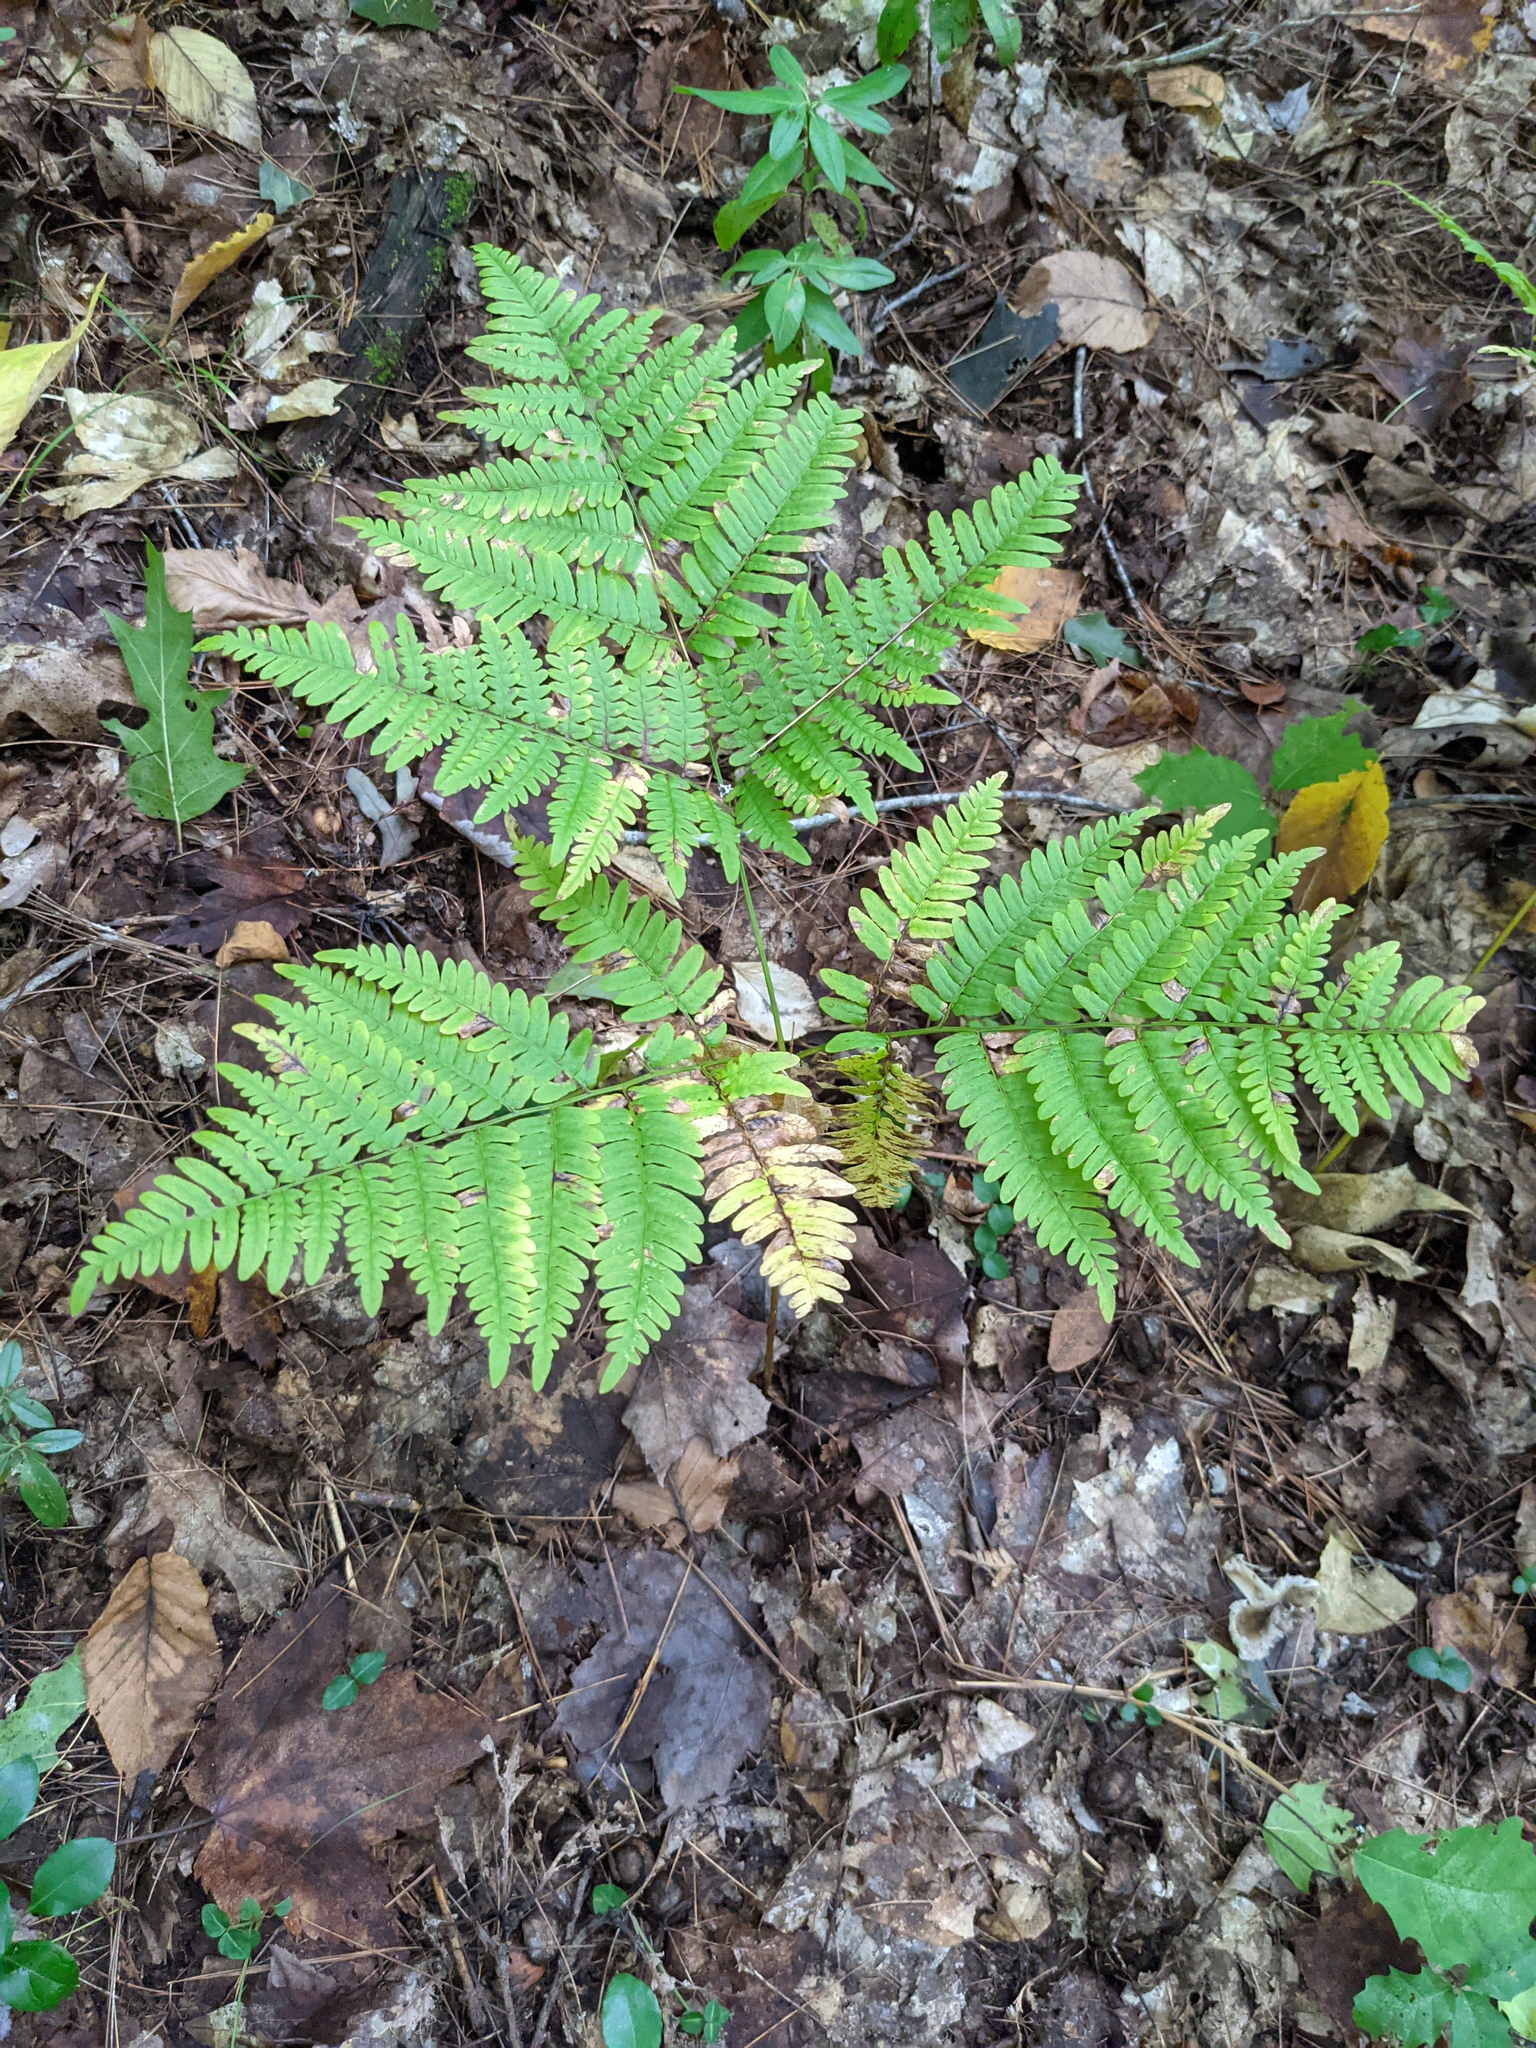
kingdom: Plantae
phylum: Tracheophyta
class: Polypodiopsida
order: Polypodiales
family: Dennstaedtiaceae
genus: Pteridium
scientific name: Pteridium aquilinum
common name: Bracken
